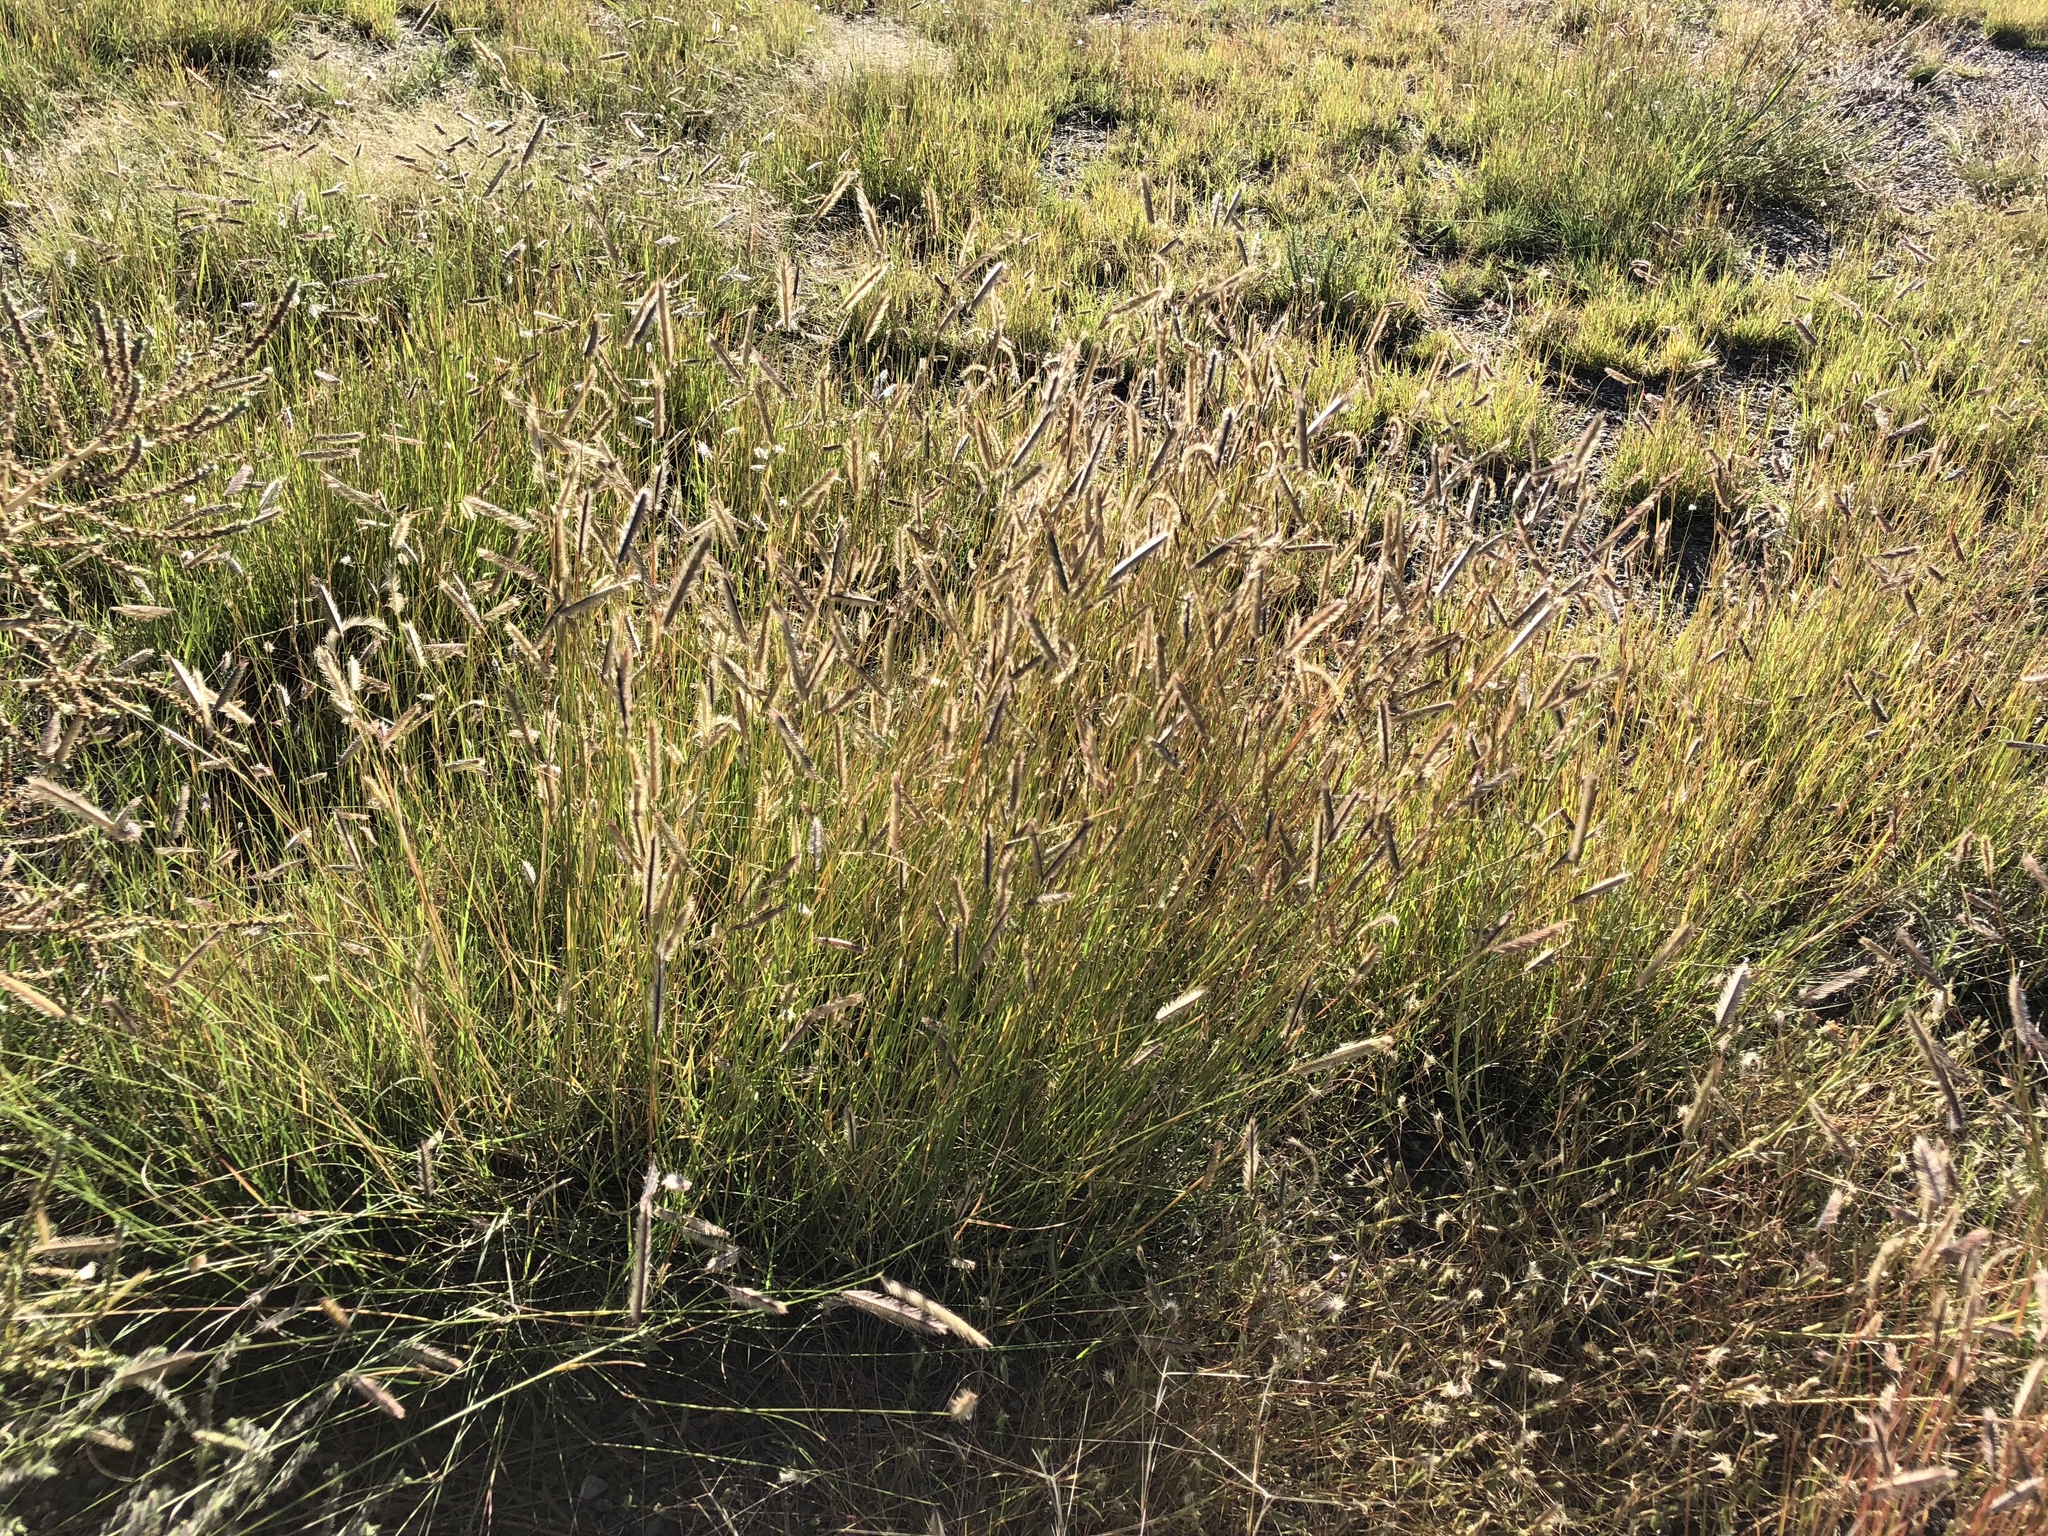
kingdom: Plantae
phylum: Tracheophyta
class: Liliopsida
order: Poales
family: Poaceae
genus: Bouteloua
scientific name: Bouteloua gracilis
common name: Blue grama
